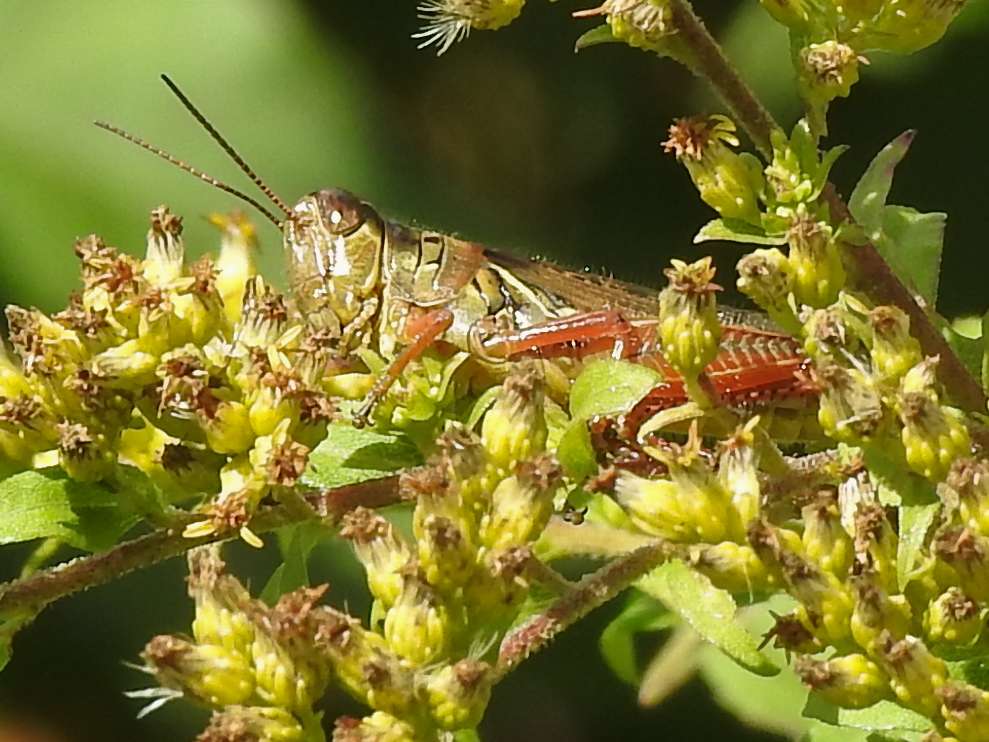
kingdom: Animalia
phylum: Arthropoda
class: Insecta
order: Orthoptera
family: Acrididae
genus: Melanoplus
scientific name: Melanoplus femurrubrum
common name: Red-legged grasshopper
